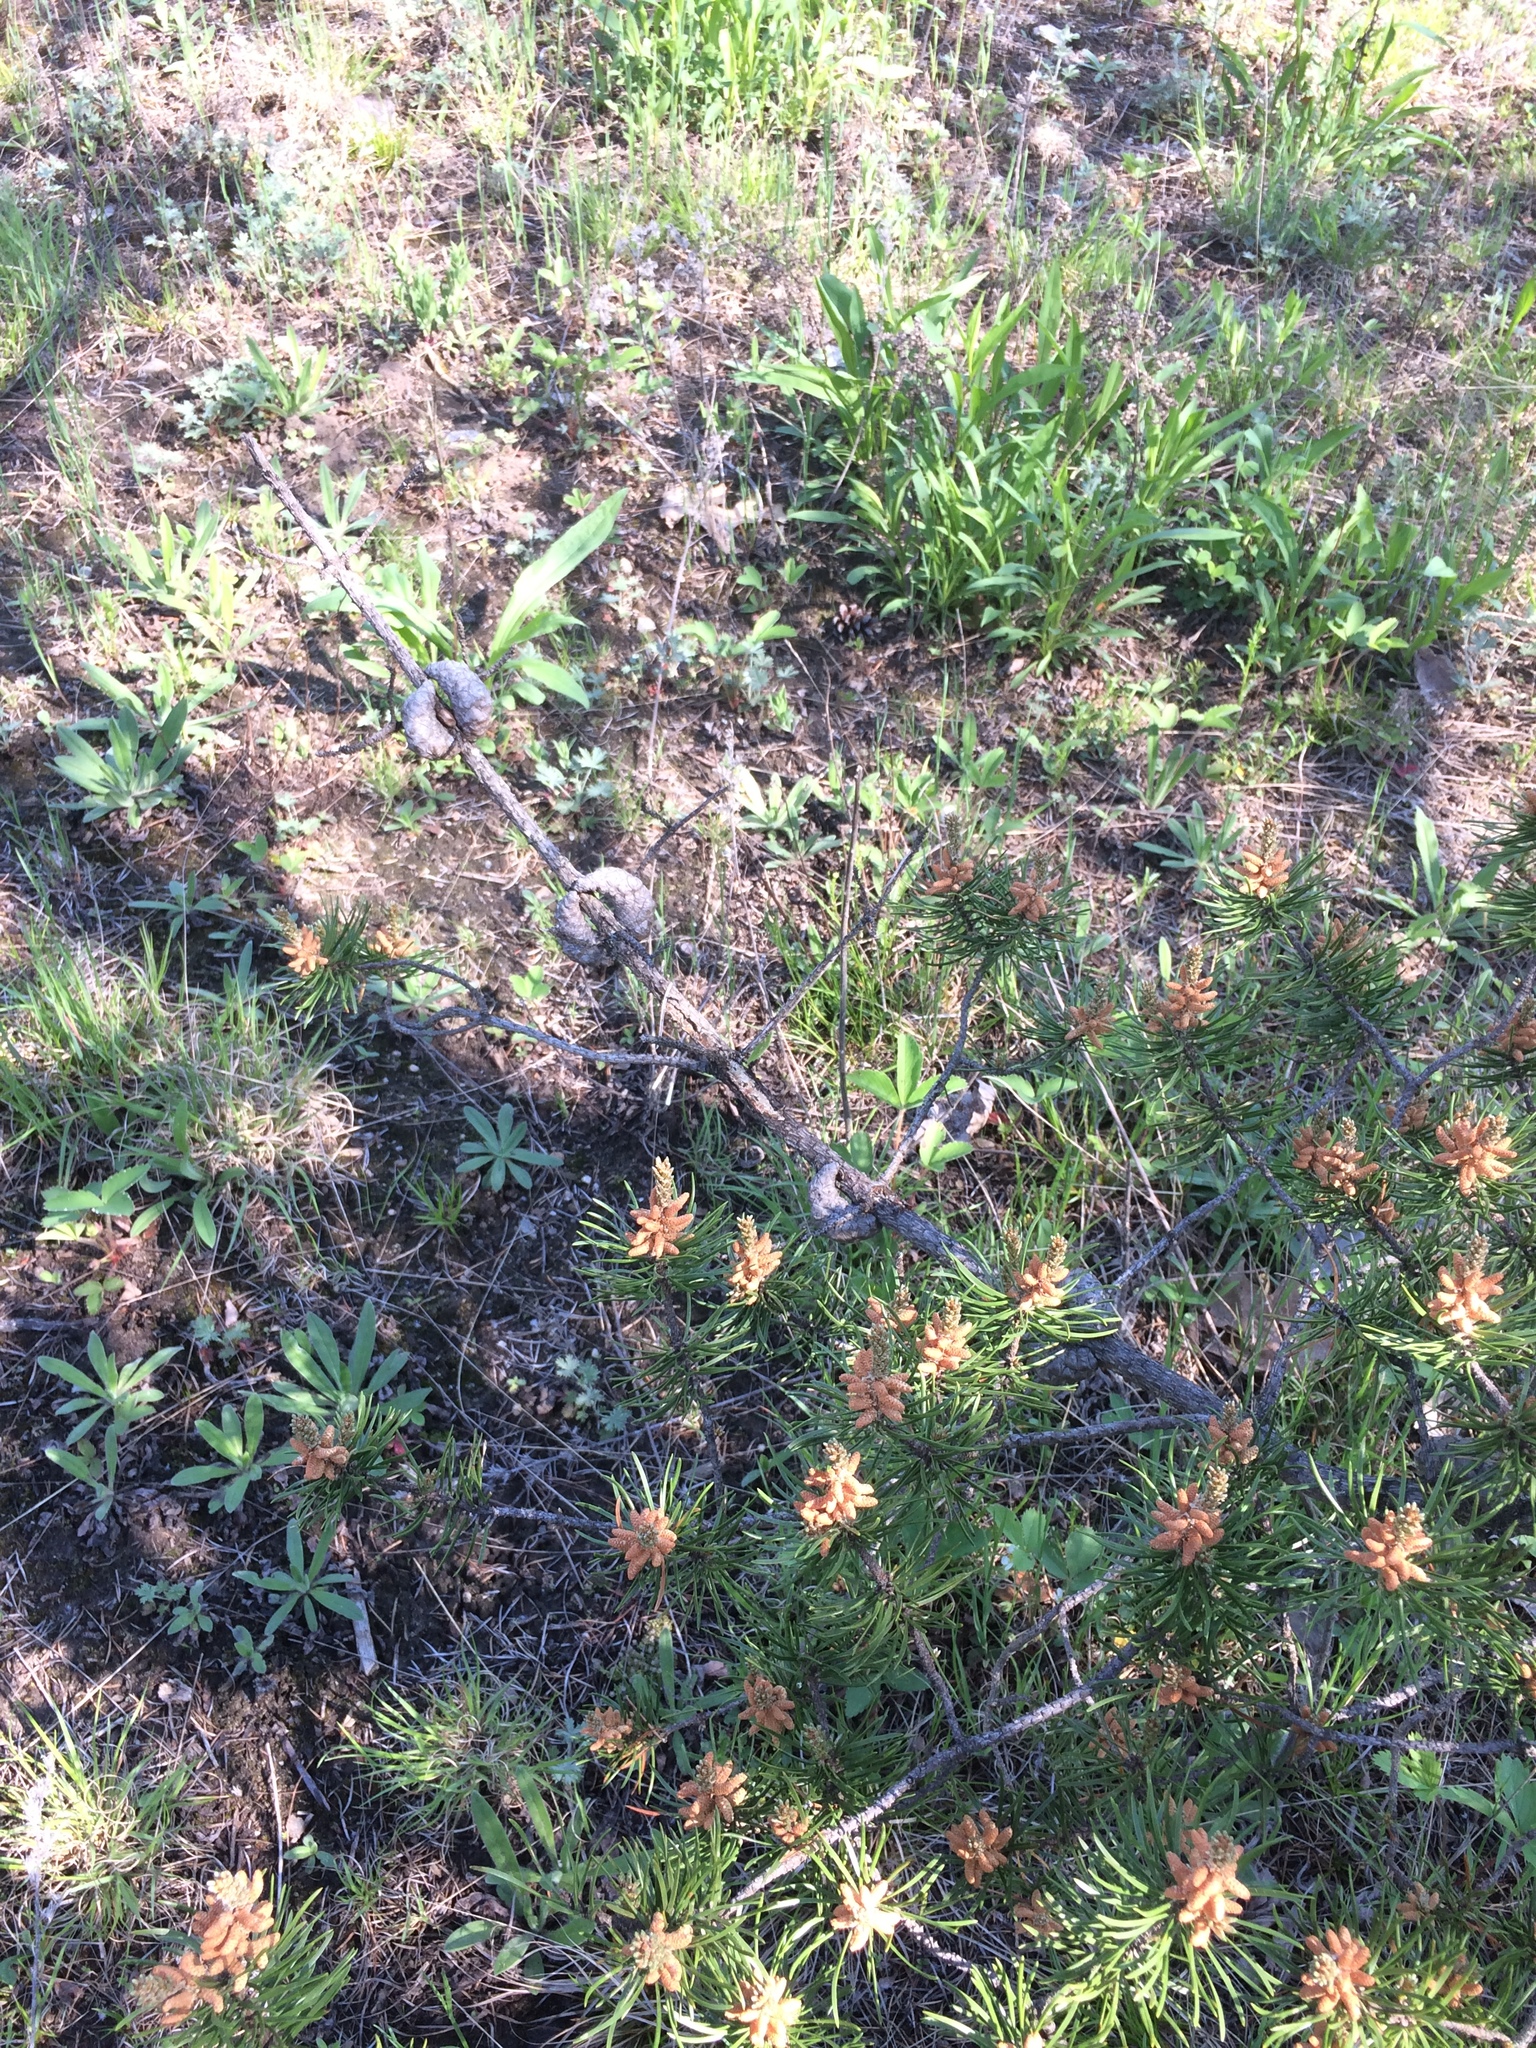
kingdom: Plantae
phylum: Tracheophyta
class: Pinopsida
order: Pinales
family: Pinaceae
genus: Pinus
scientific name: Pinus banksiana
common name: Jack pine
